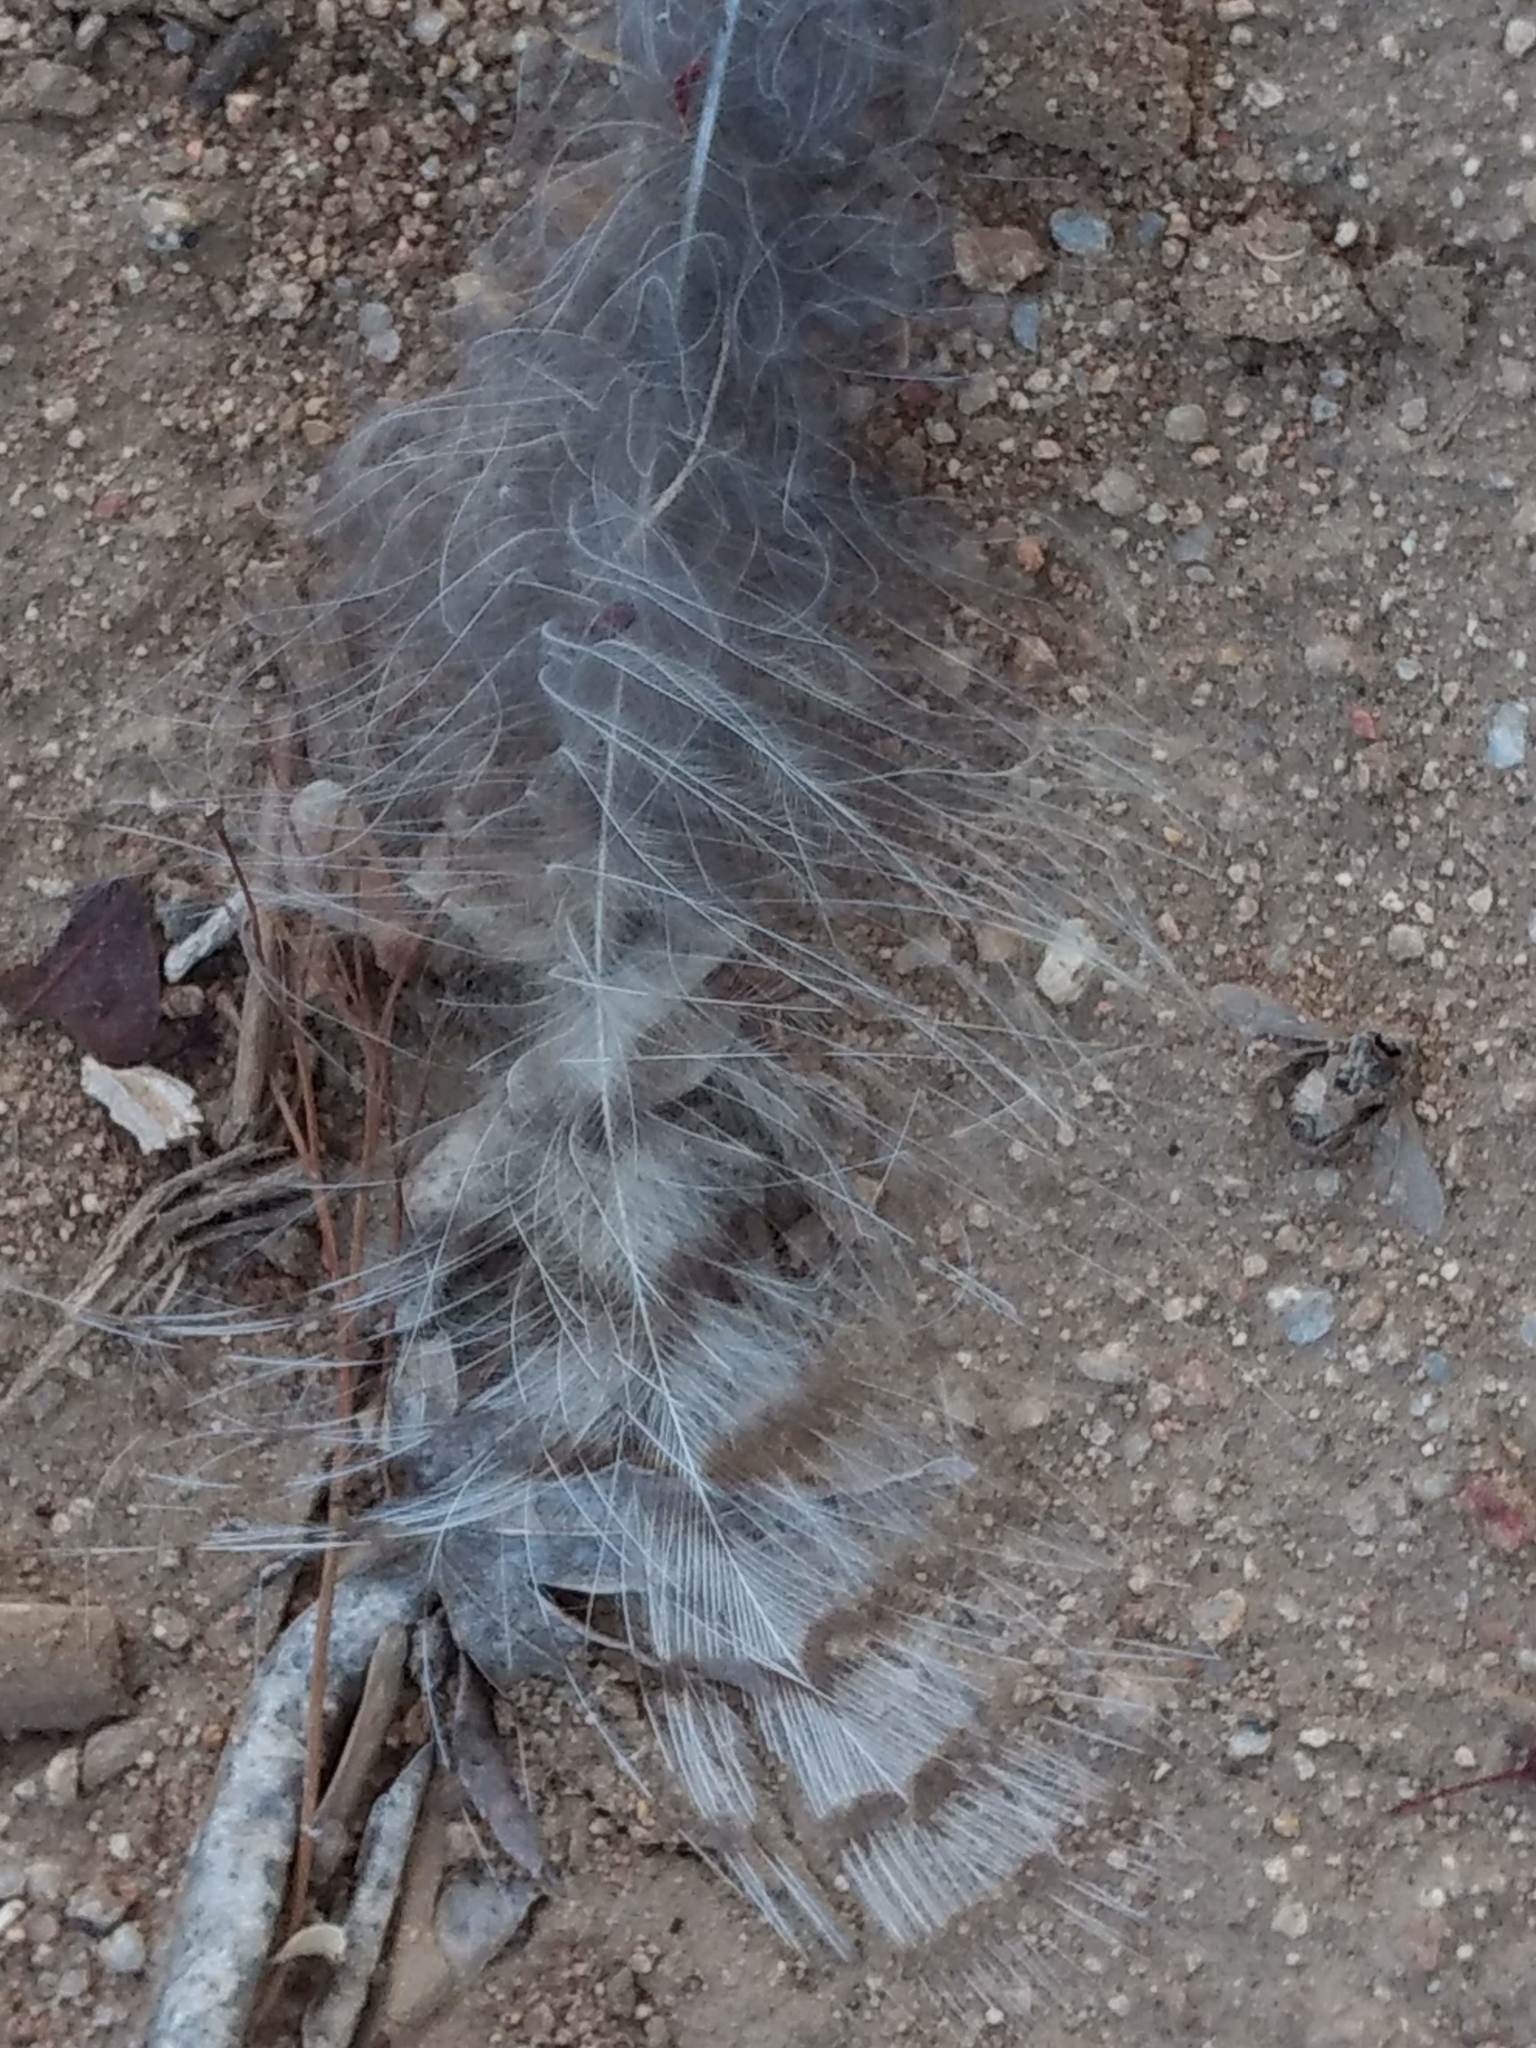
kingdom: Animalia
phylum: Chordata
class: Aves
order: Strigiformes
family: Strigidae
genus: Bubo
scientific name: Bubo virginianus
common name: Great horned owl
